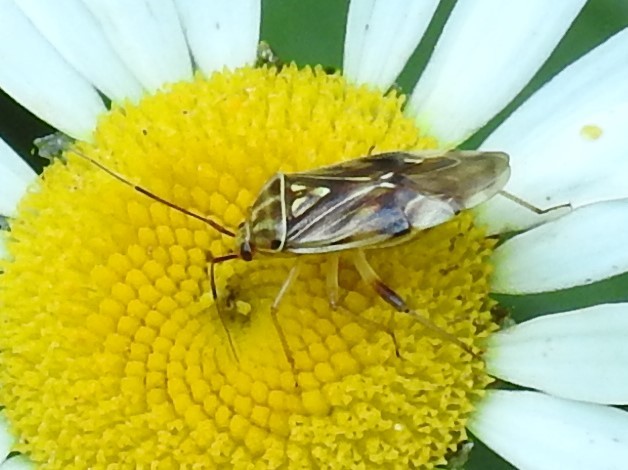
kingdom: Animalia
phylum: Arthropoda
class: Insecta
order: Hemiptera
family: Miridae
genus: Lygus
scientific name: Lygus lineolaris
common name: North american tarnished plant bug
